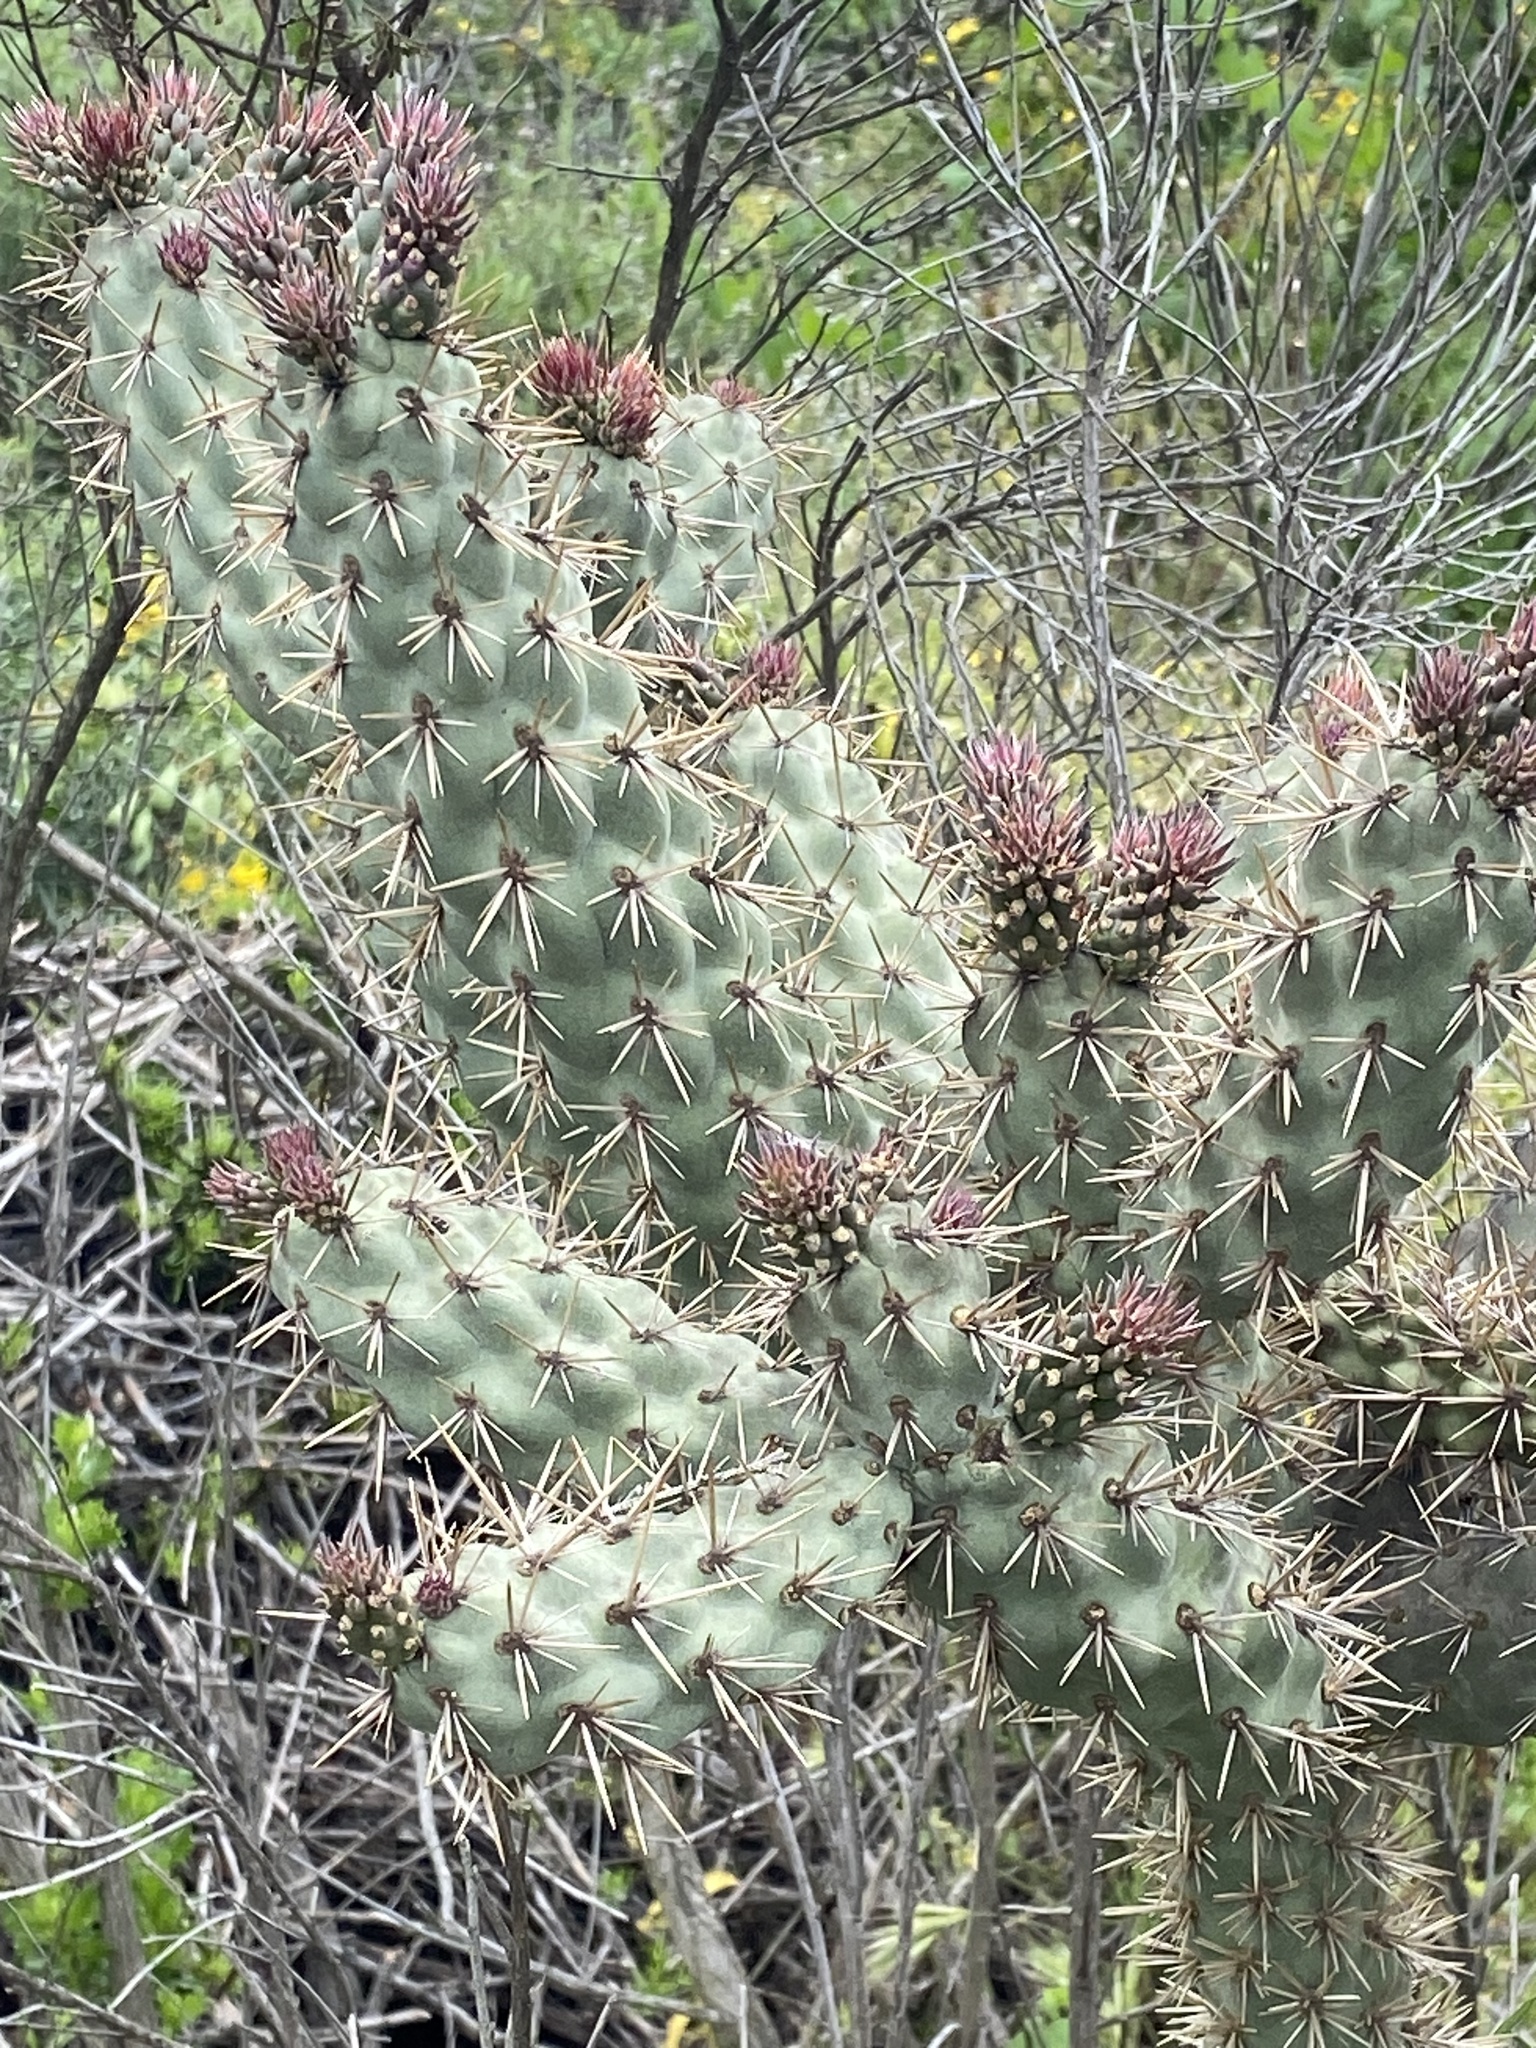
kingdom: Plantae
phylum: Tracheophyta
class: Magnoliopsida
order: Caryophyllales
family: Cactaceae
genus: Cylindropuntia
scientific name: Cylindropuntia prolifera
